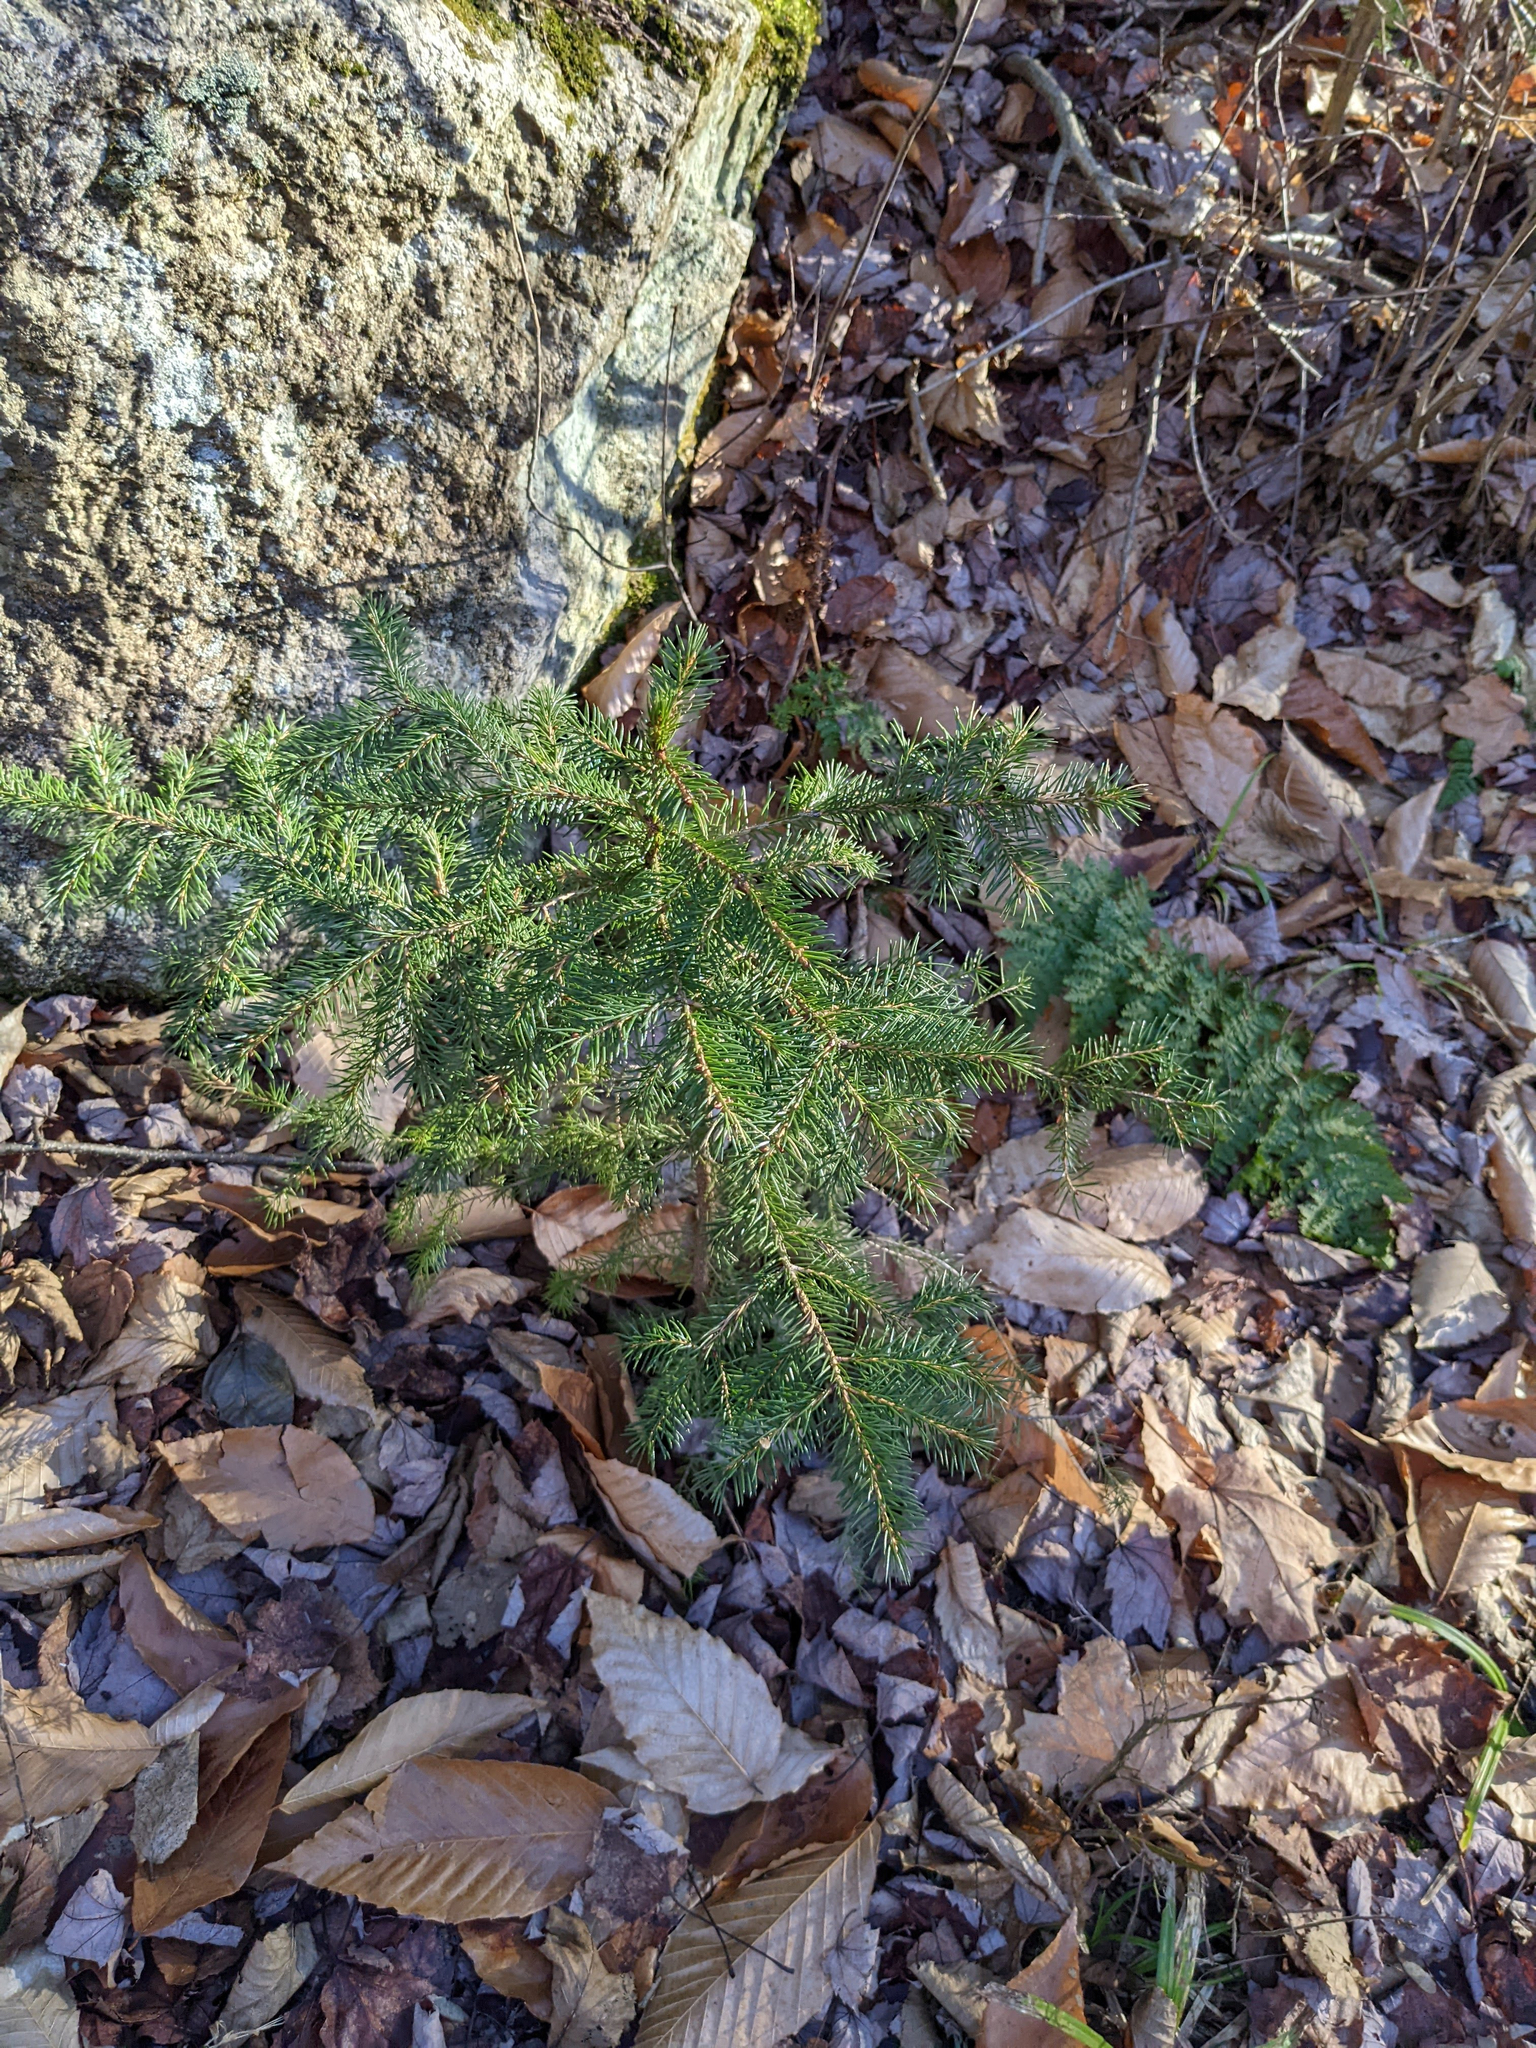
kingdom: Plantae
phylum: Tracheophyta
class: Pinopsida
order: Pinales
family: Pinaceae
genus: Picea
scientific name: Picea rubens
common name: Red spruce
